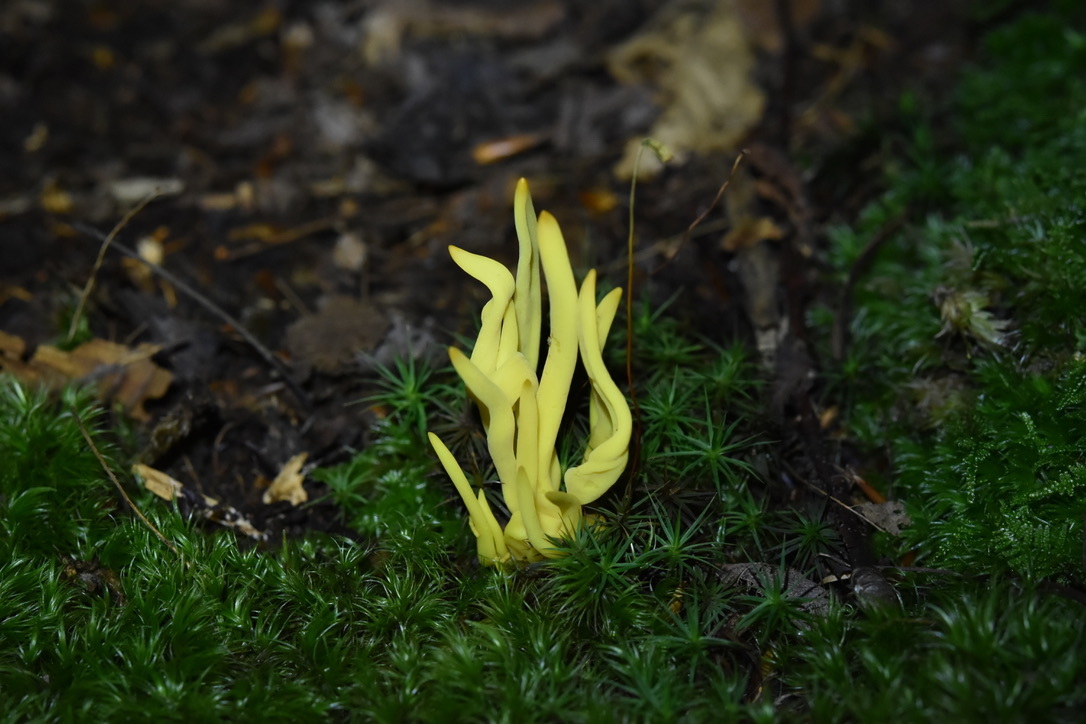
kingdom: Fungi
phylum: Basidiomycota
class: Agaricomycetes
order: Agaricales
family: Clavariaceae
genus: Clavulinopsis
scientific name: Clavulinopsis fusiformis
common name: Golden spindles
